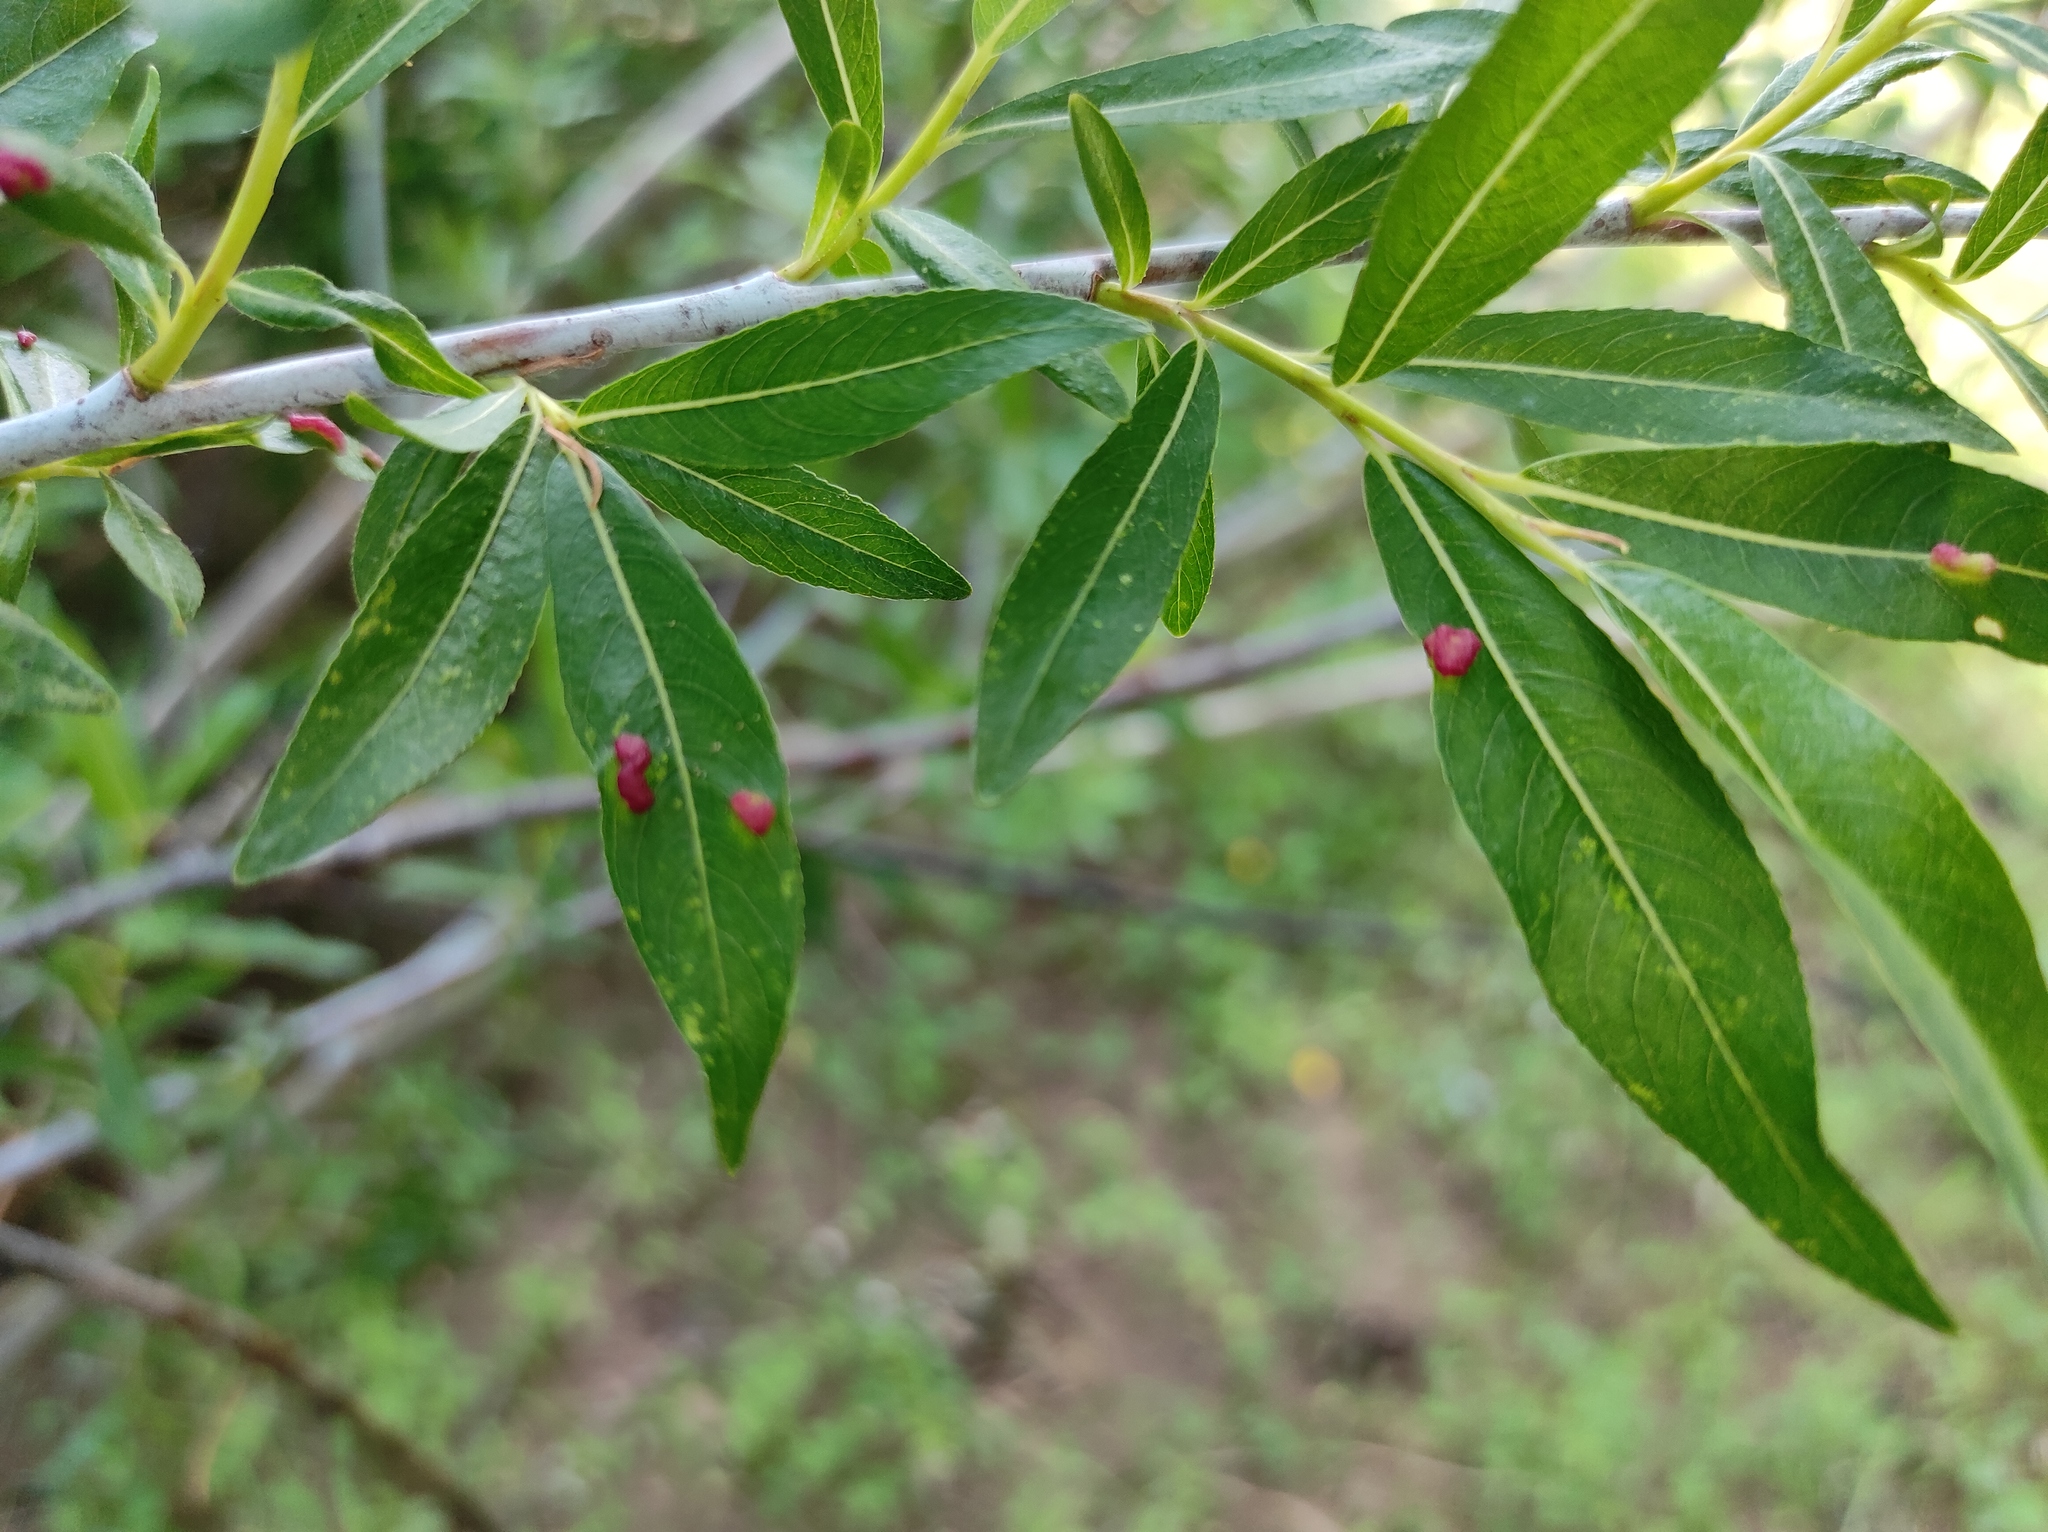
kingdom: Plantae
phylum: Tracheophyta
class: Magnoliopsida
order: Malpighiales
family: Salicaceae
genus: Salix
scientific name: Salix rorida
